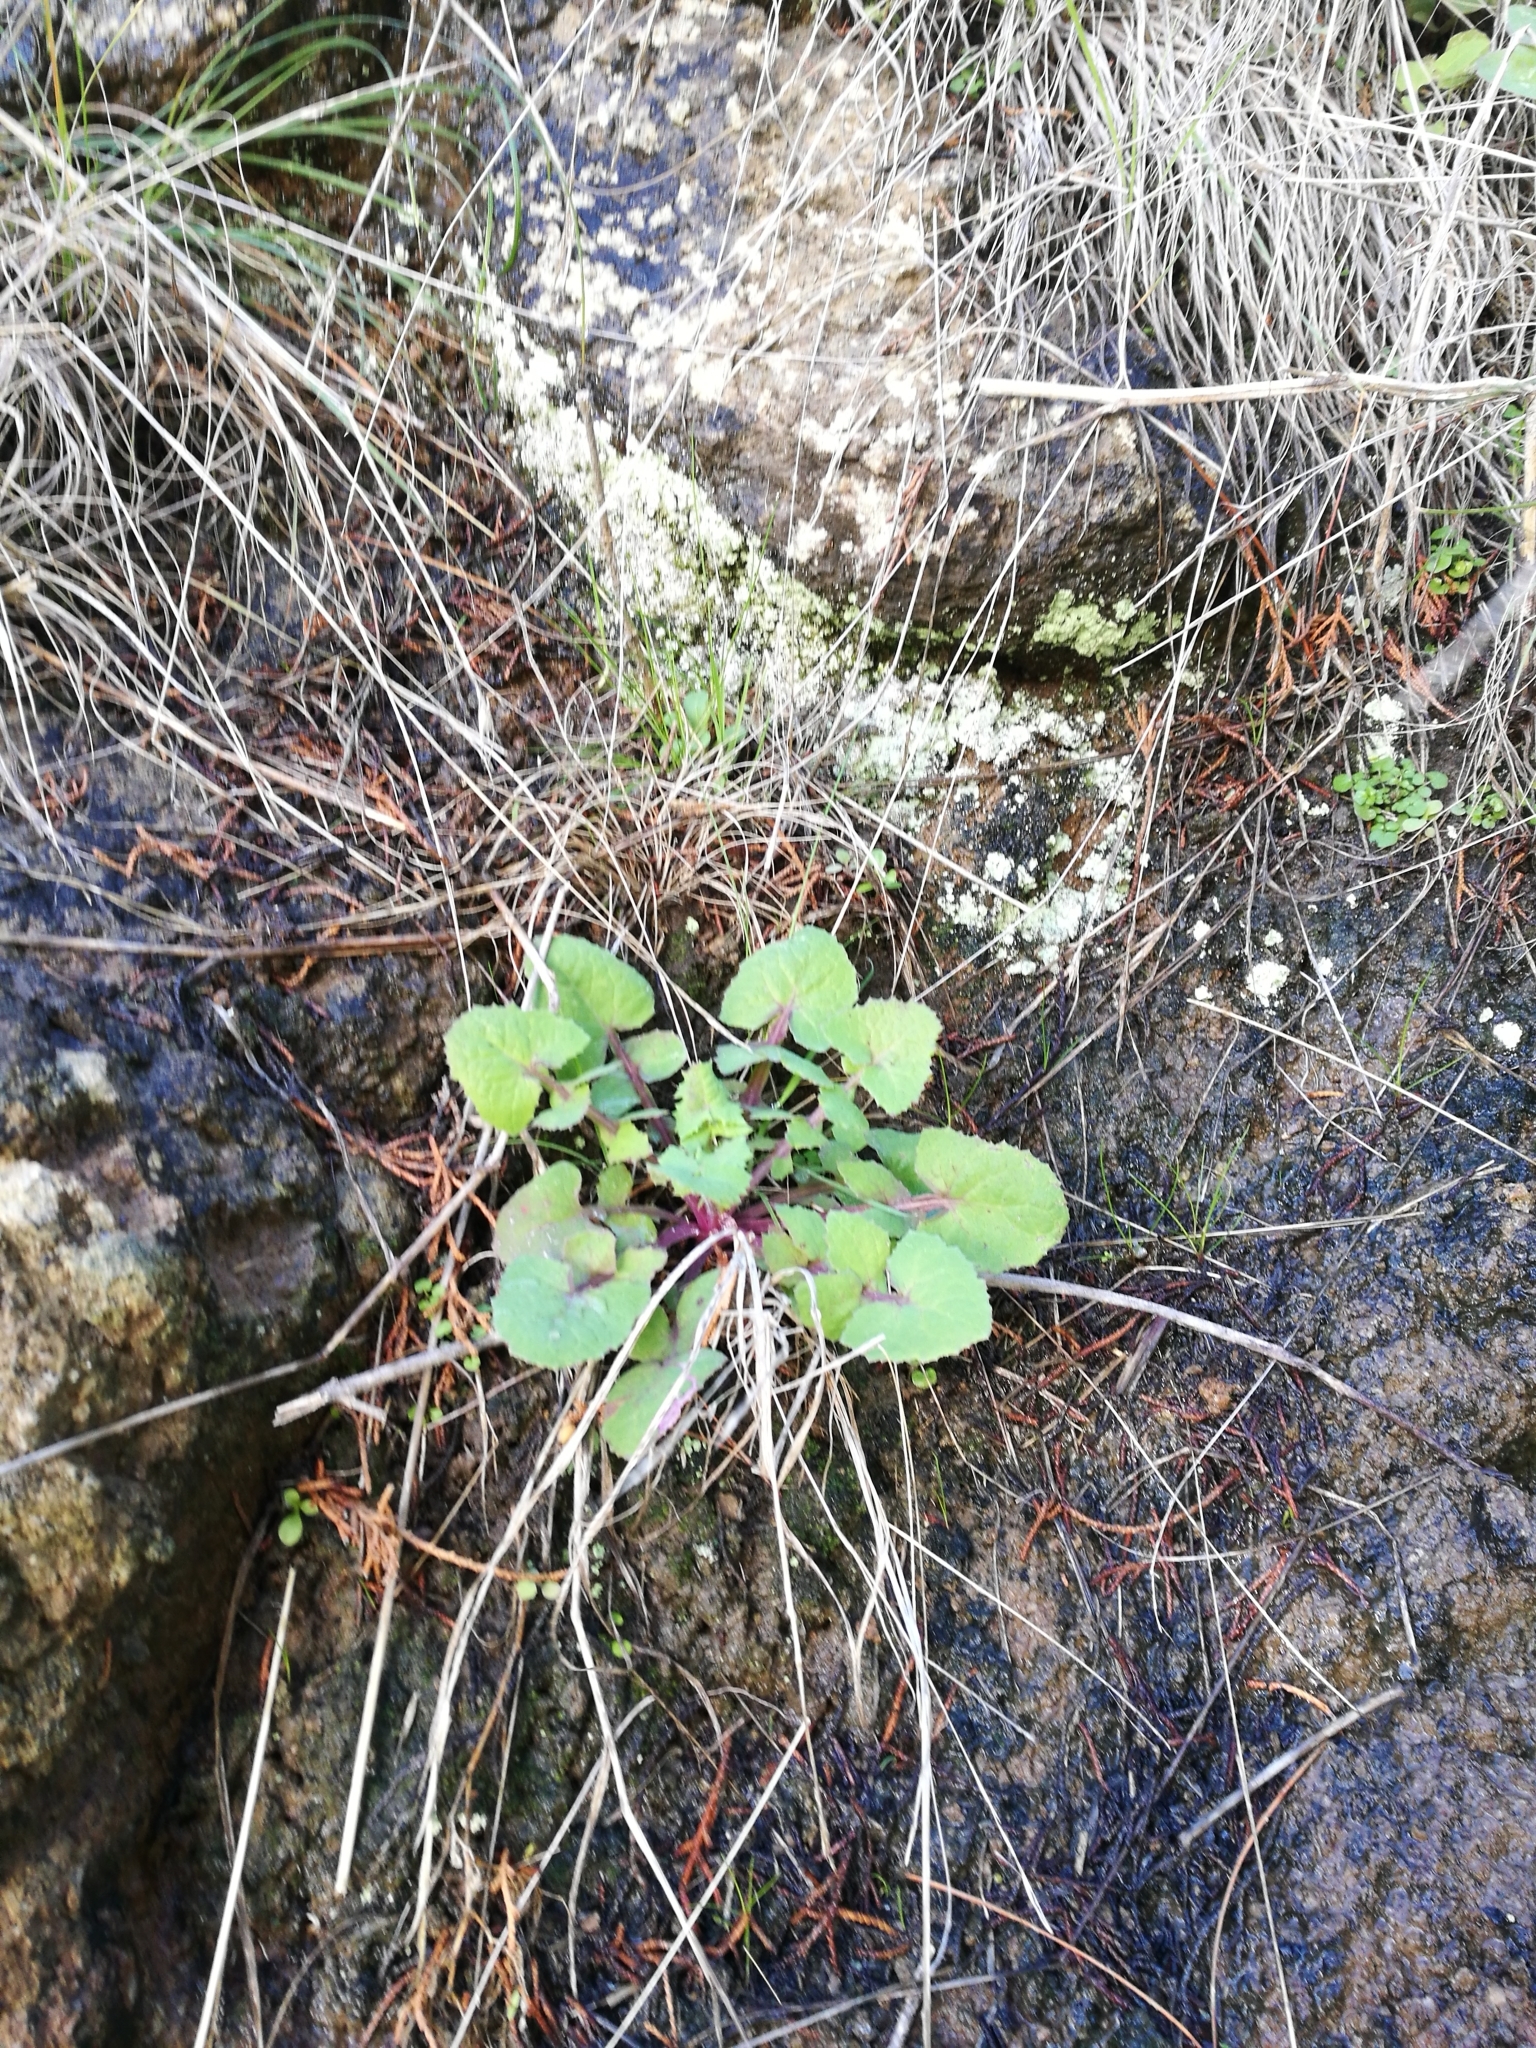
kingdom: Plantae
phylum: Tracheophyta
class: Magnoliopsida
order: Asterales
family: Asteraceae
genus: Sonchus
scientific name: Sonchus oleraceus
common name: Common sowthistle
